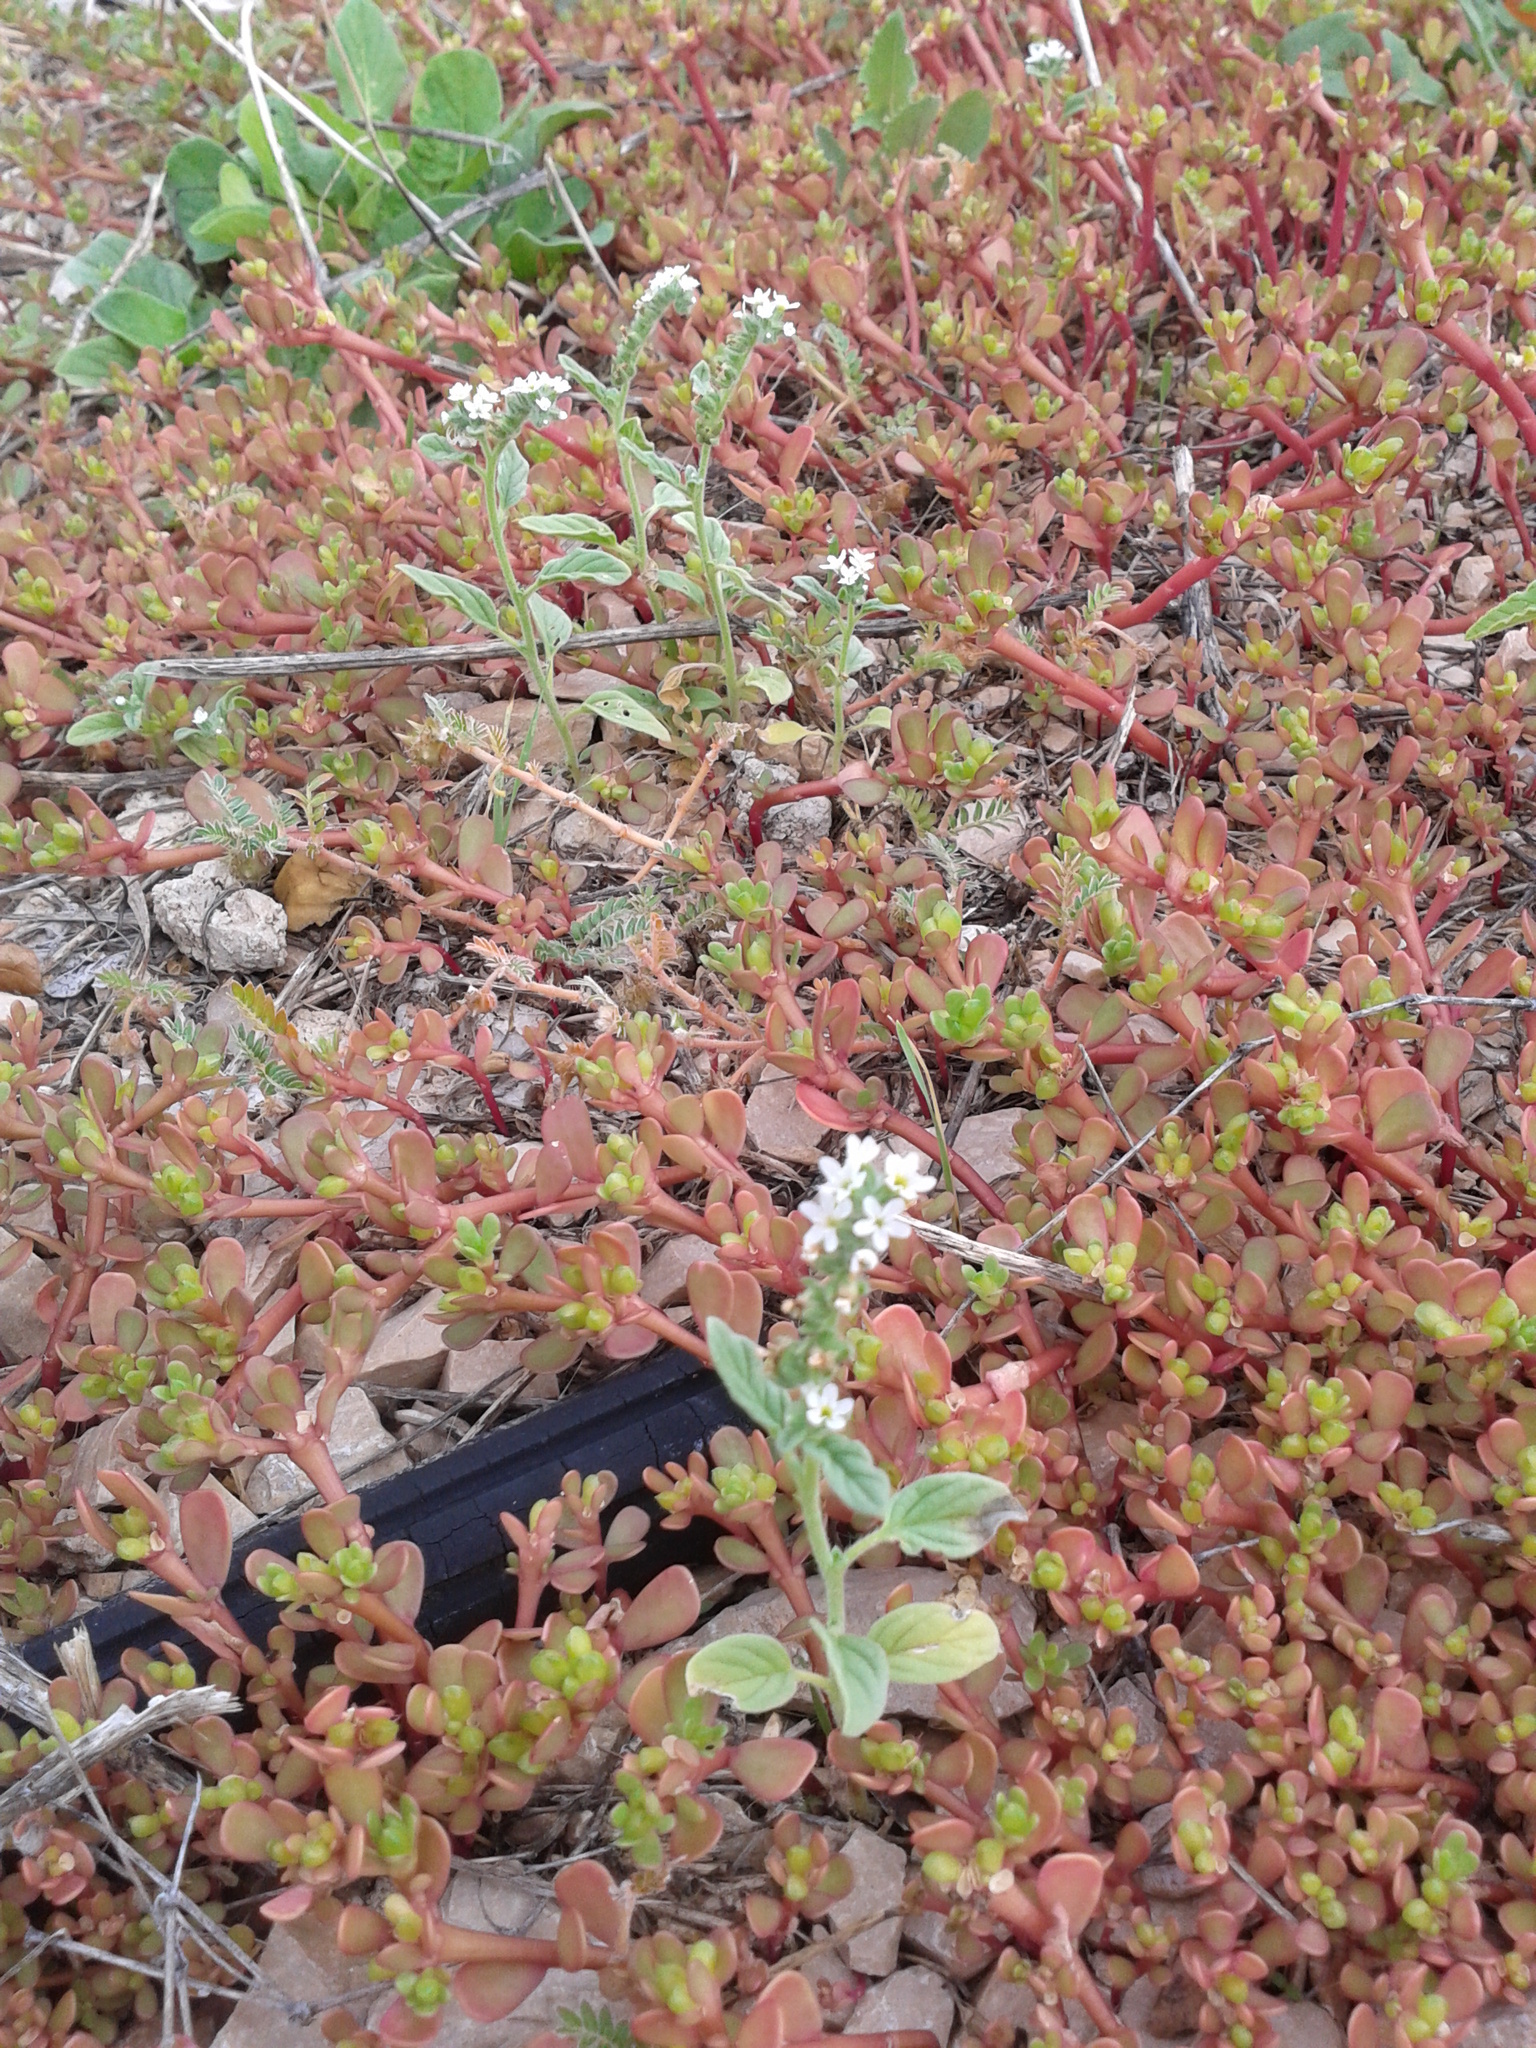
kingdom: Plantae
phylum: Tracheophyta
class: Magnoliopsida
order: Boraginales
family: Heliotropiaceae
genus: Heliotropium
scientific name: Heliotropium europaeum
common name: European heliotrope
